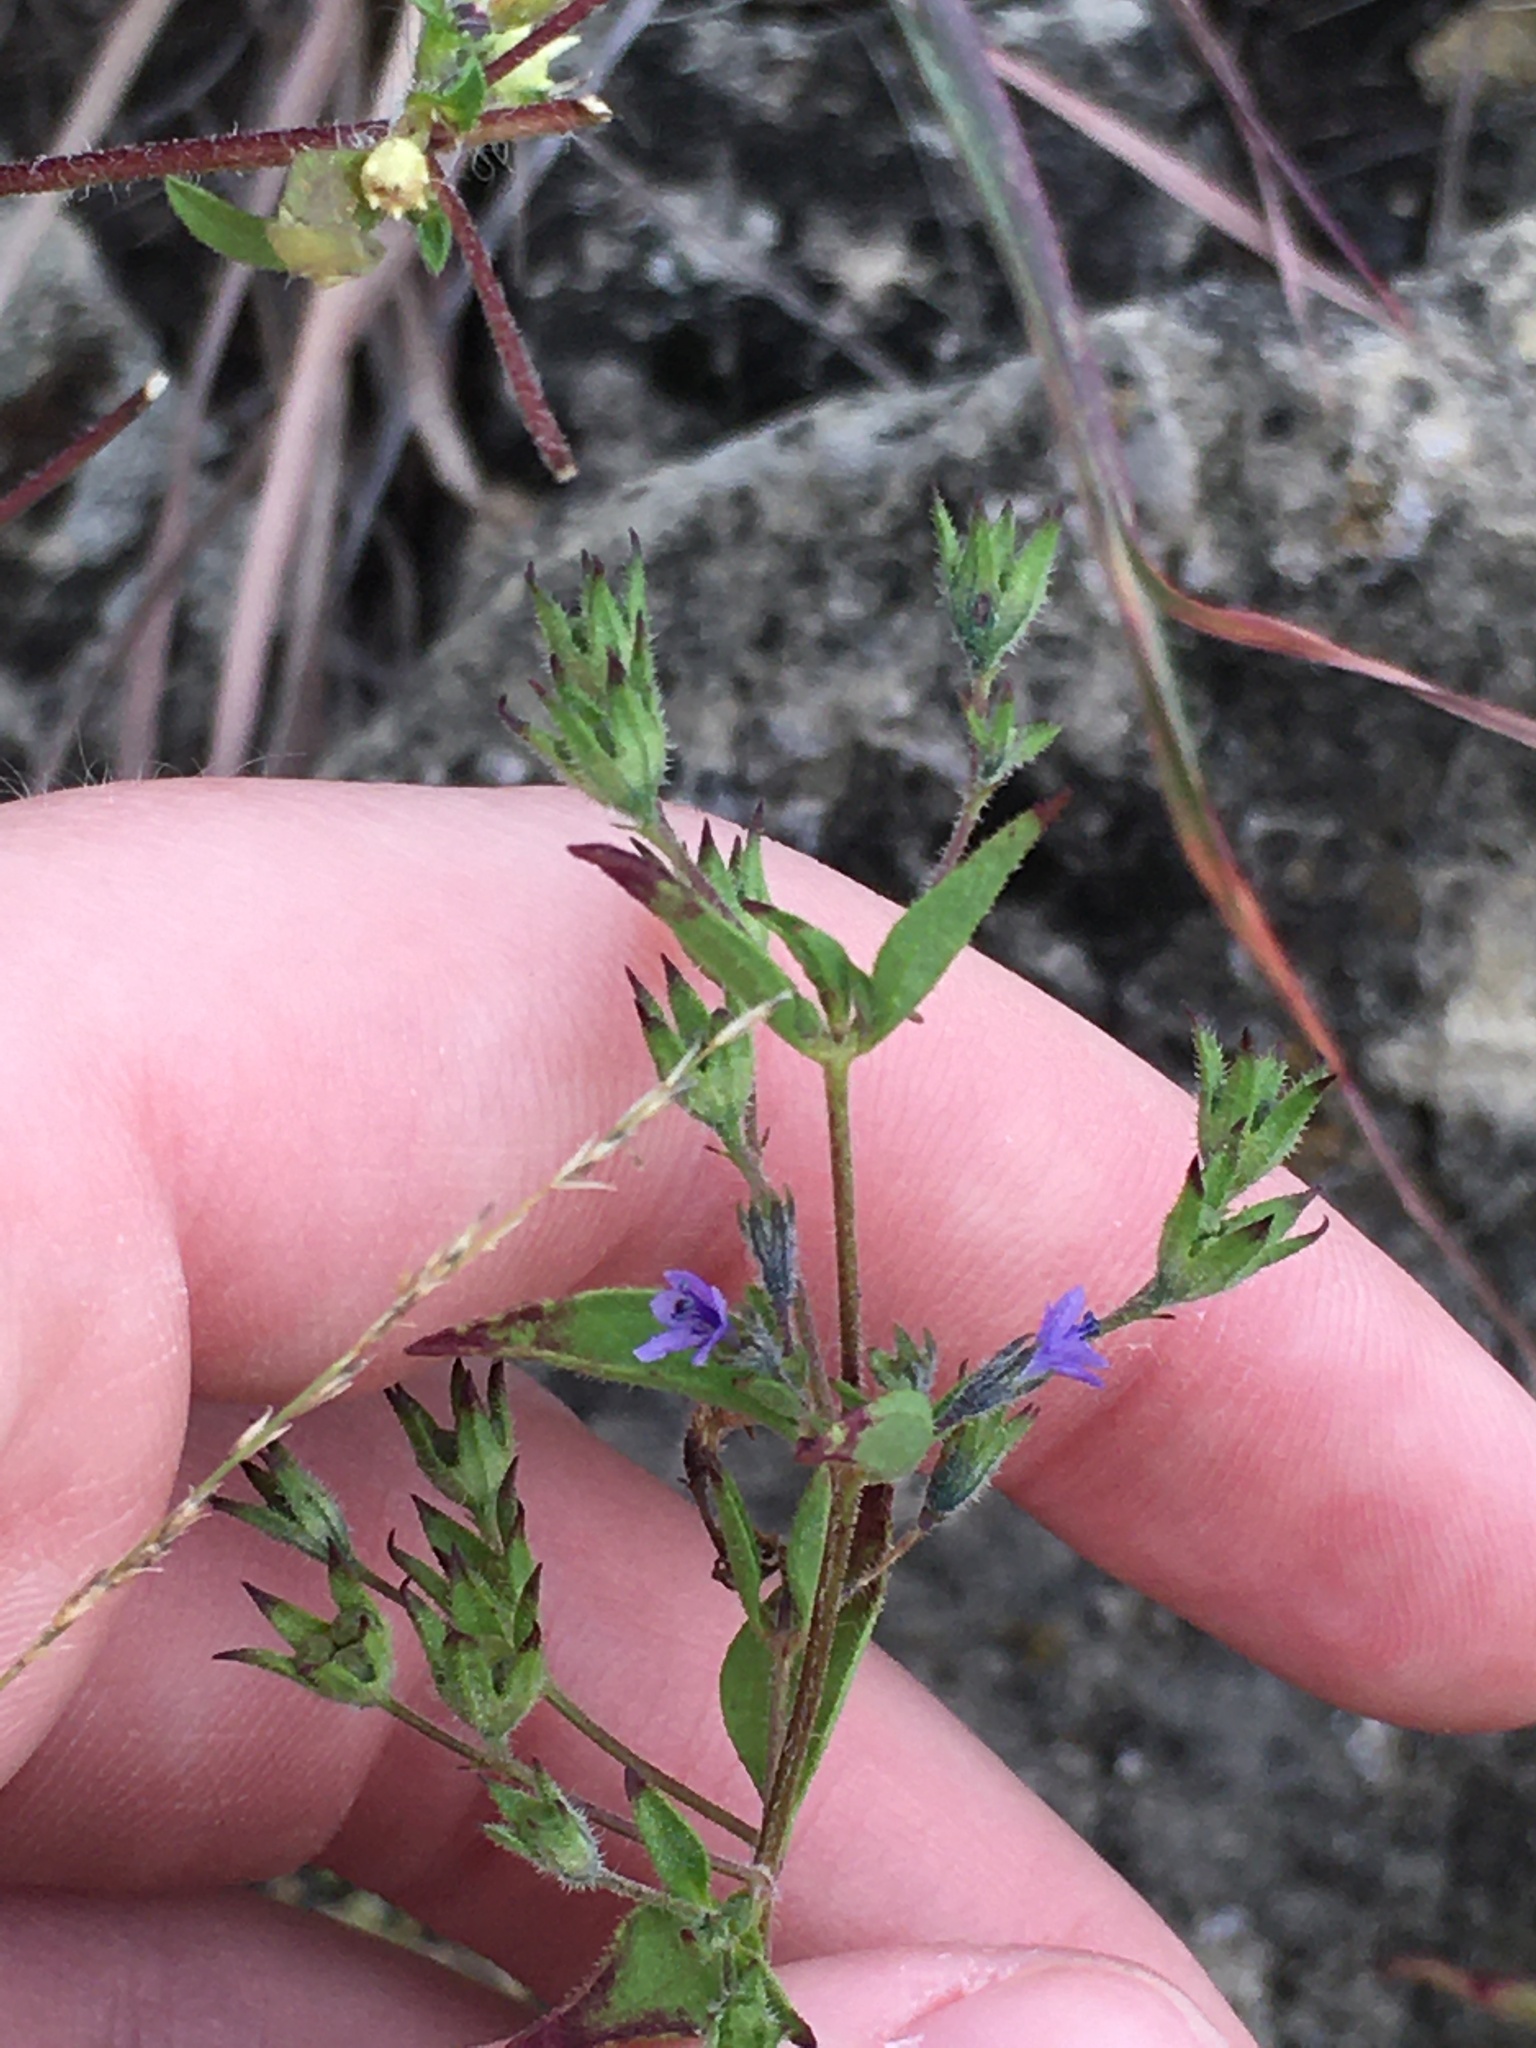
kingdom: Plantae
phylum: Tracheophyta
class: Magnoliopsida
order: Lamiales
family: Lamiaceae
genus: Trichostema
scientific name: Trichostema brachiatum
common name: False pennyroyal
